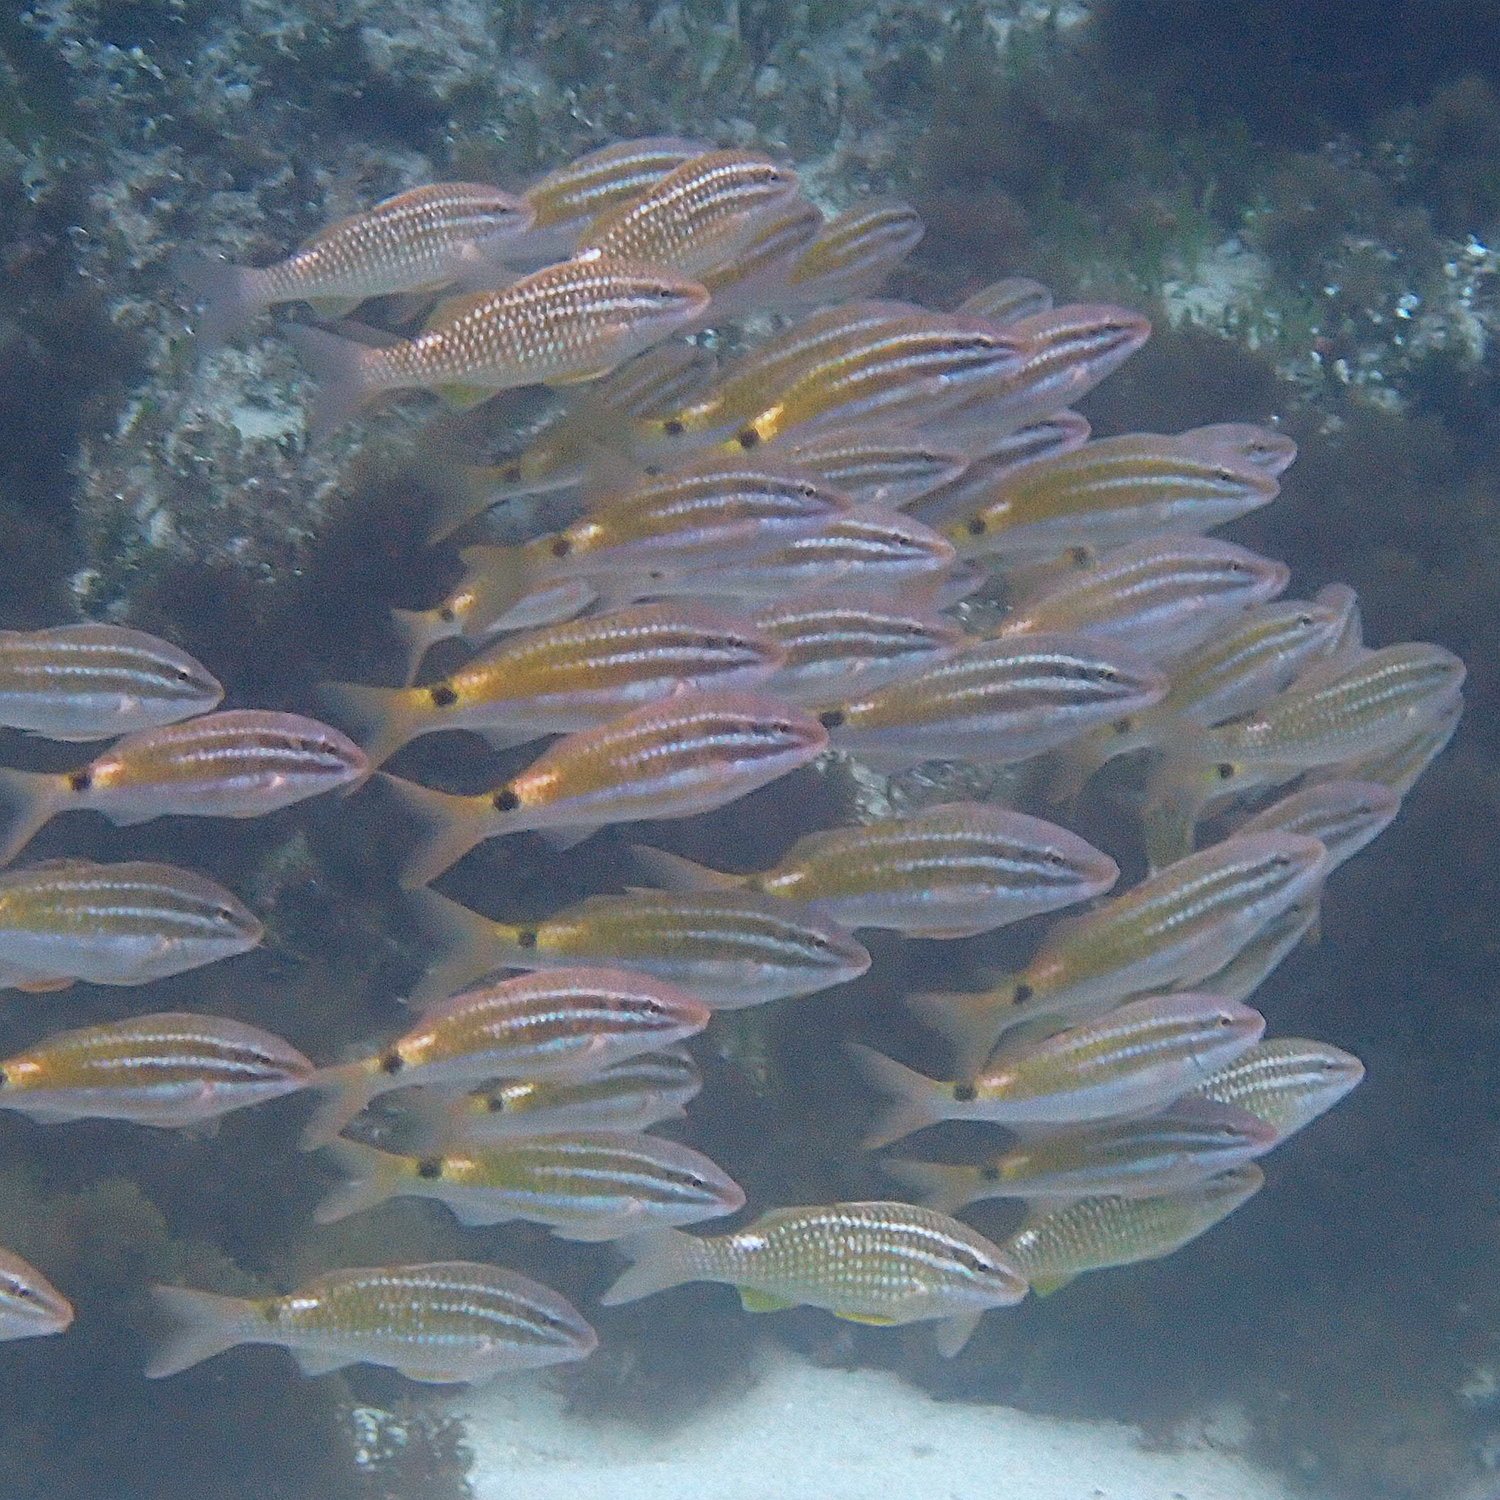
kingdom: Animalia
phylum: Chordata
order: Perciformes
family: Mullidae
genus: Parupeneus
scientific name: Parupeneus spilurus
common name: Blackspot goatfish
